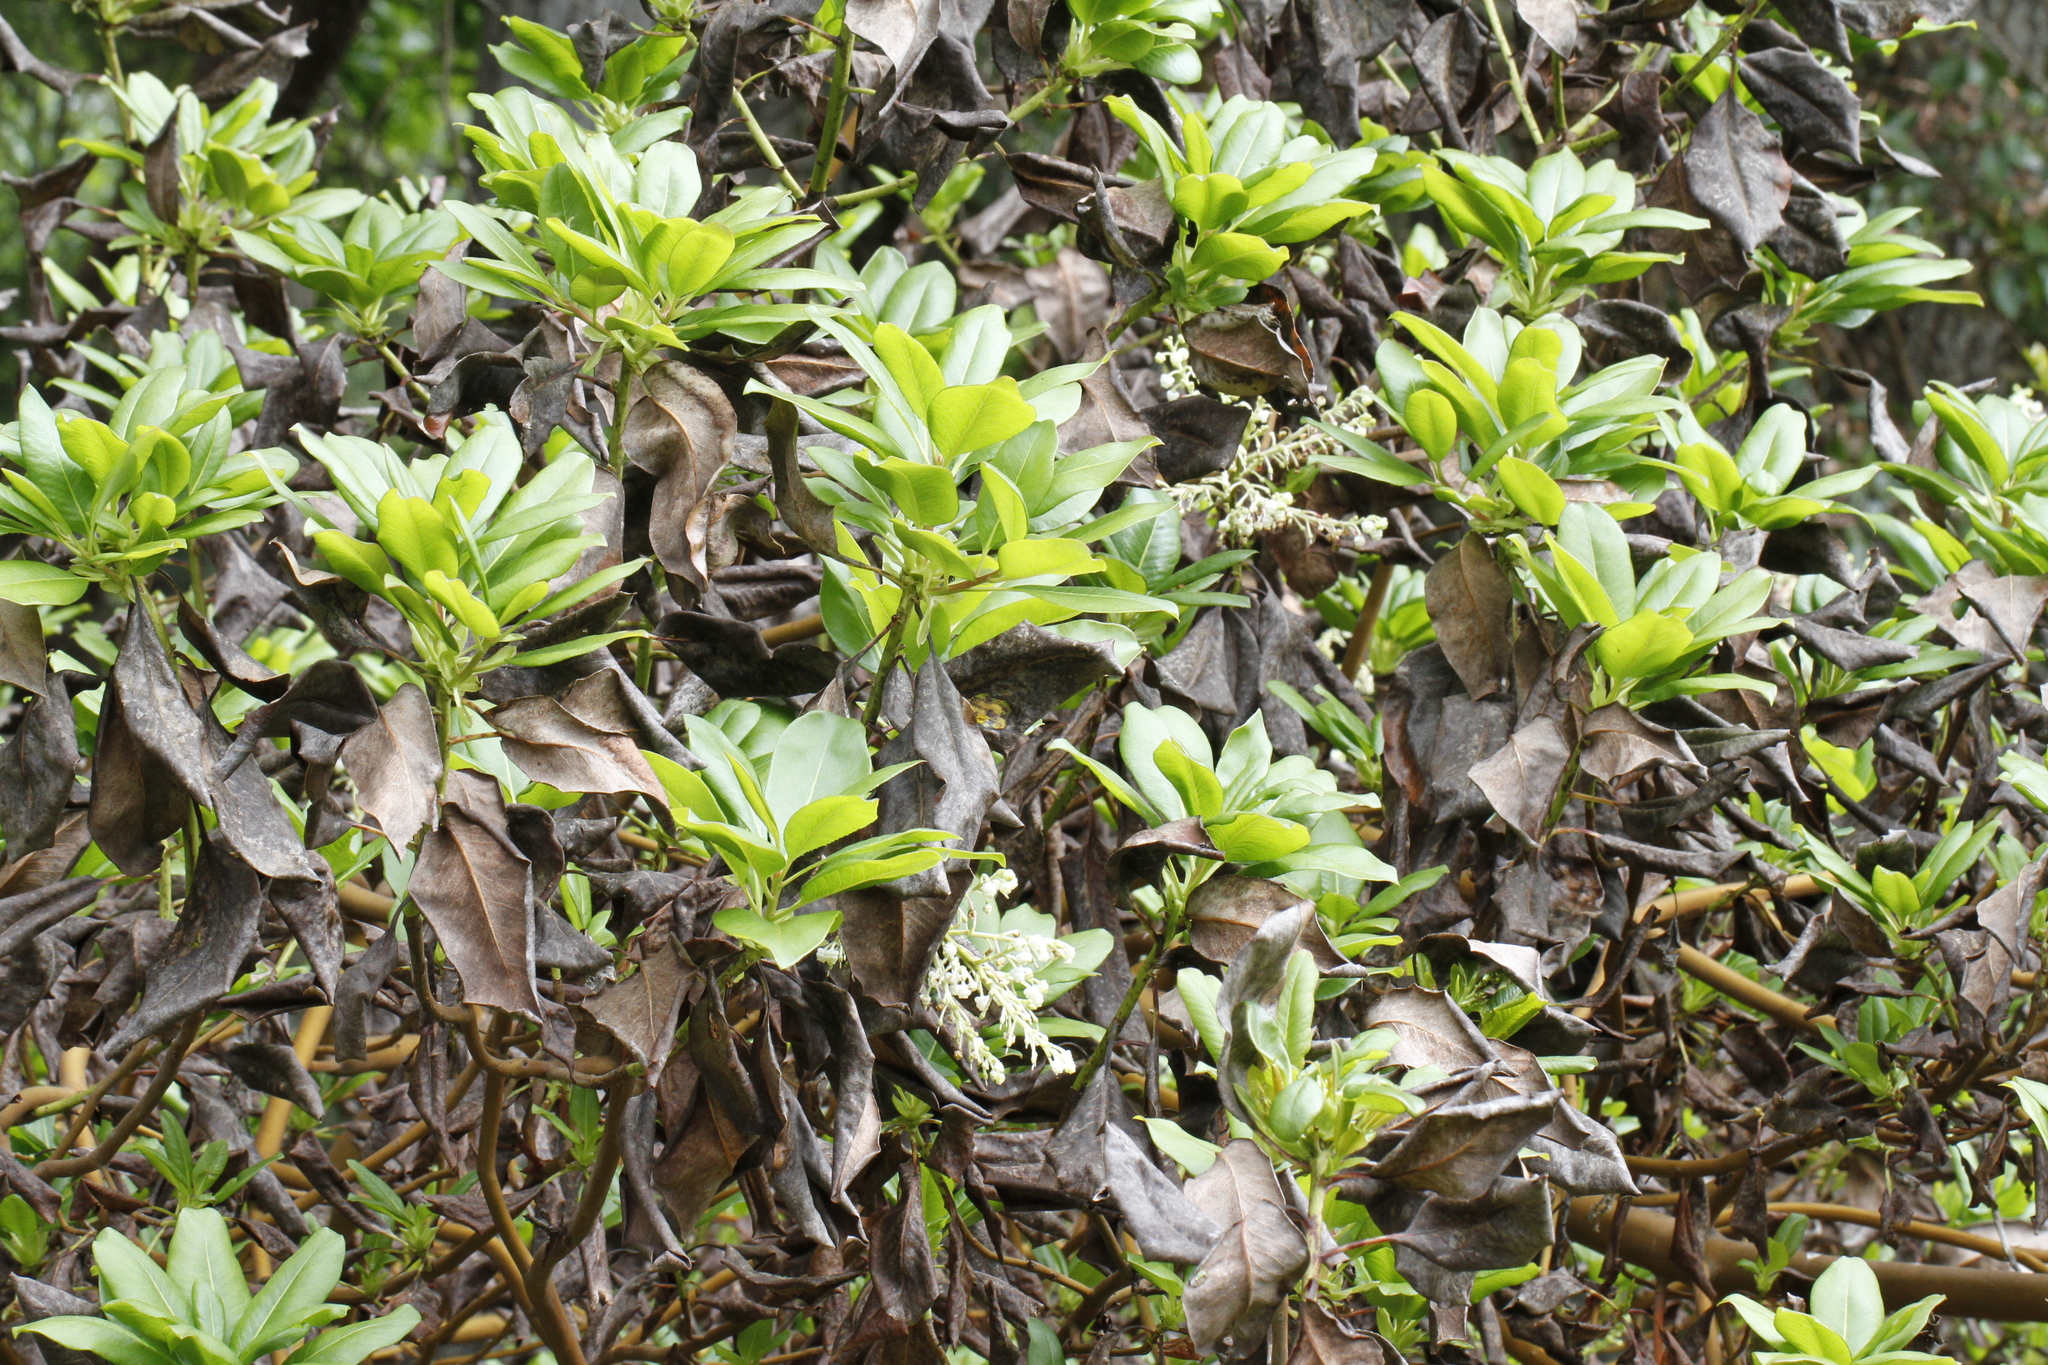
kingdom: Plantae
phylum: Tracheophyta
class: Magnoliopsida
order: Ericales
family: Ericaceae
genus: Arbutus
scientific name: Arbutus menziesii
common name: Pacific madrone
